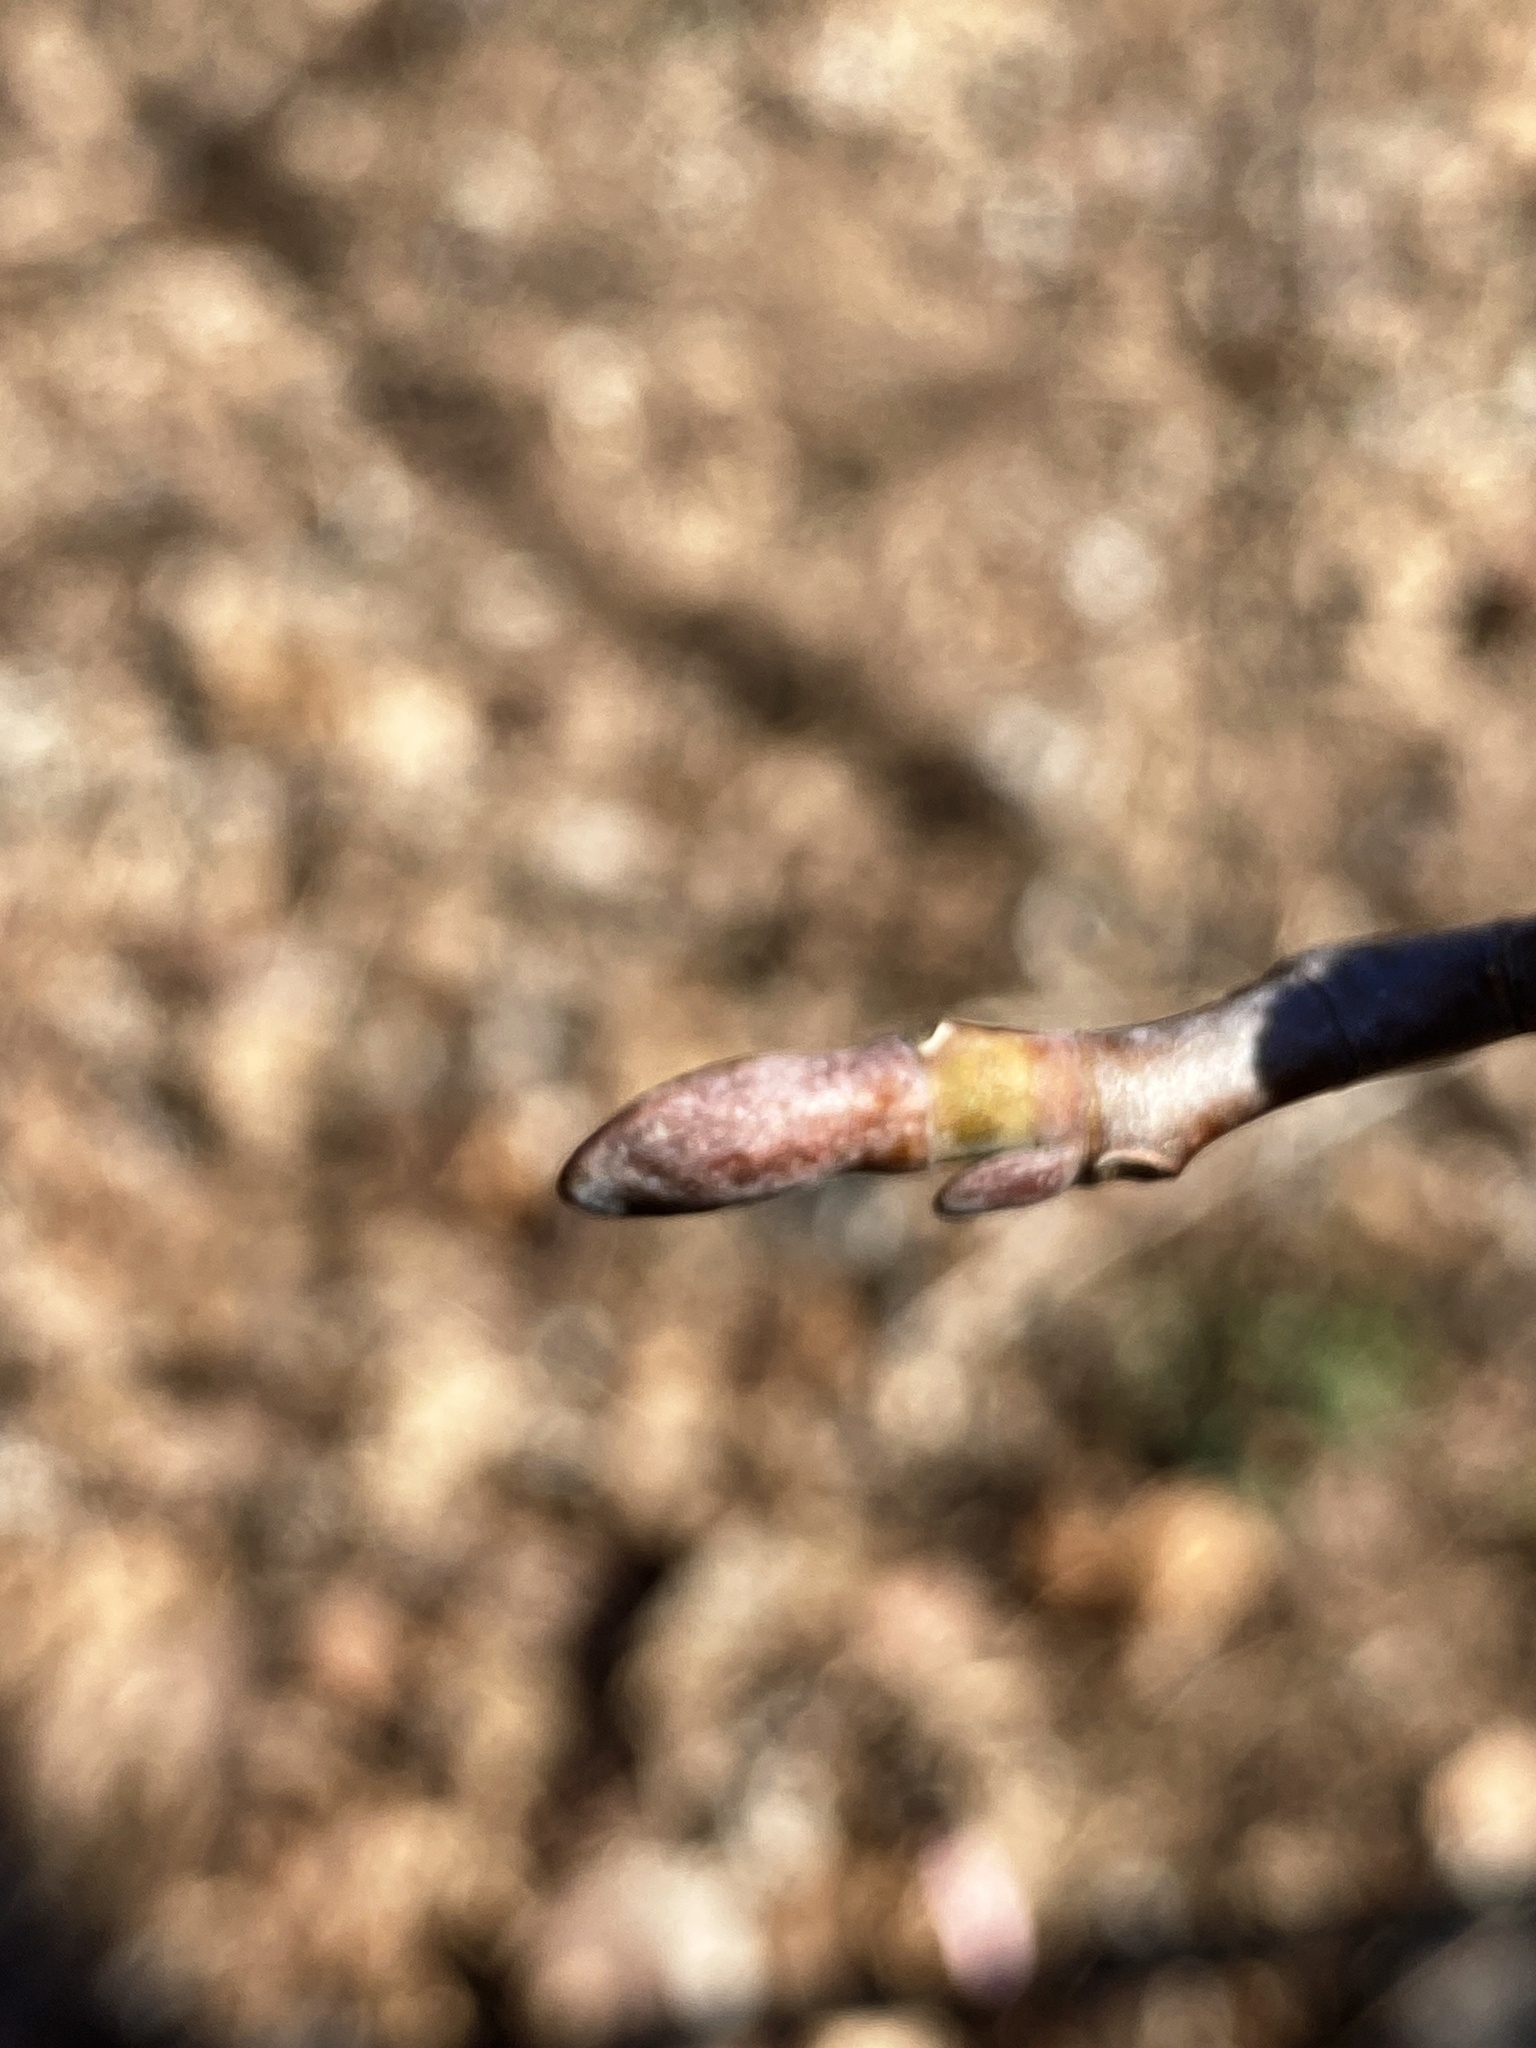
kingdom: Plantae
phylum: Tracheophyta
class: Magnoliopsida
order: Magnoliales
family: Magnoliaceae
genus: Liriodendron
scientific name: Liriodendron tulipifera
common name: Tulip tree
